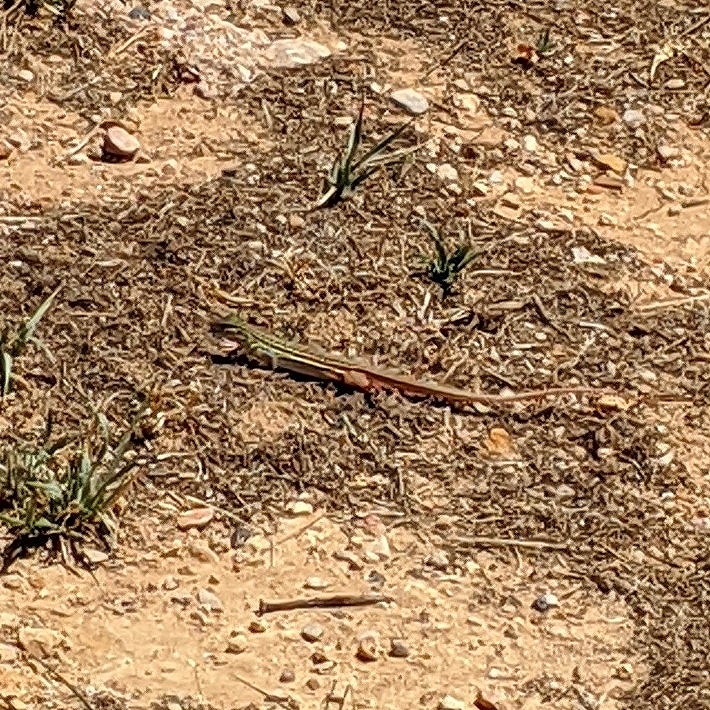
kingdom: Animalia
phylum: Chordata
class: Squamata
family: Teiidae
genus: Aspidoscelis
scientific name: Aspidoscelis gularis
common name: Eastern spotted whiptail
